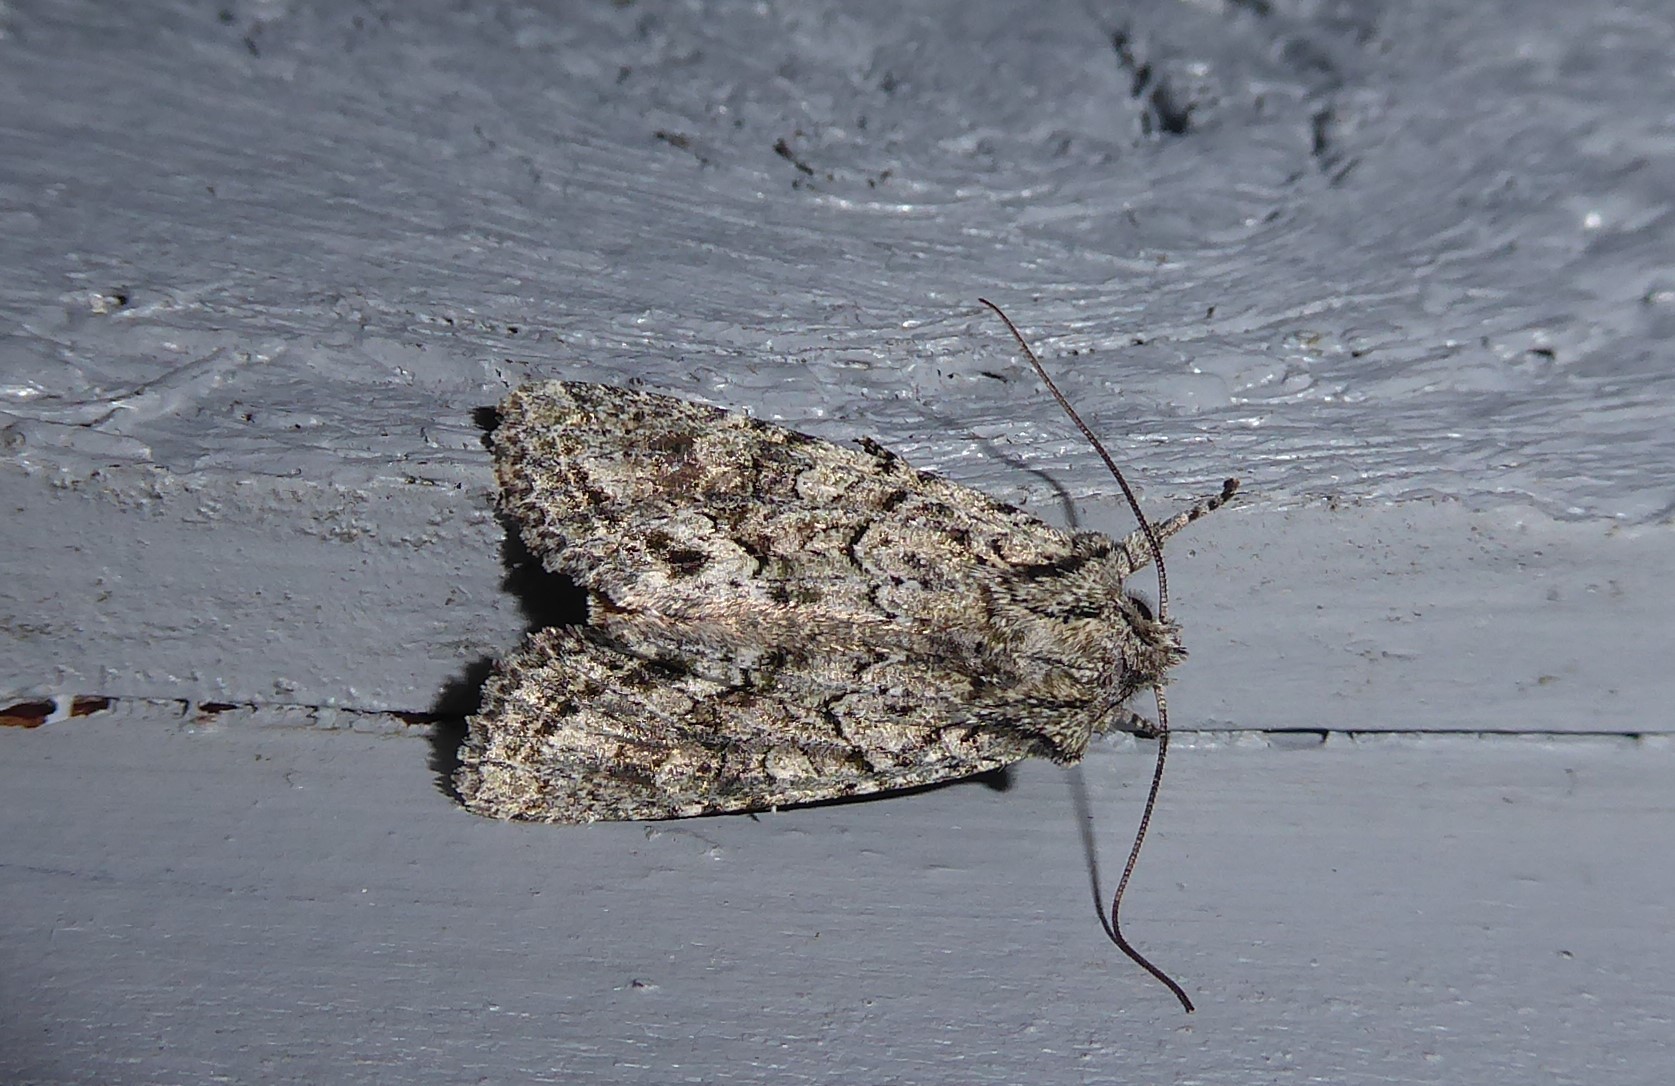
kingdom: Animalia
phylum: Arthropoda
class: Insecta
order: Lepidoptera
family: Noctuidae
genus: Ichneutica
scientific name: Ichneutica mutans
